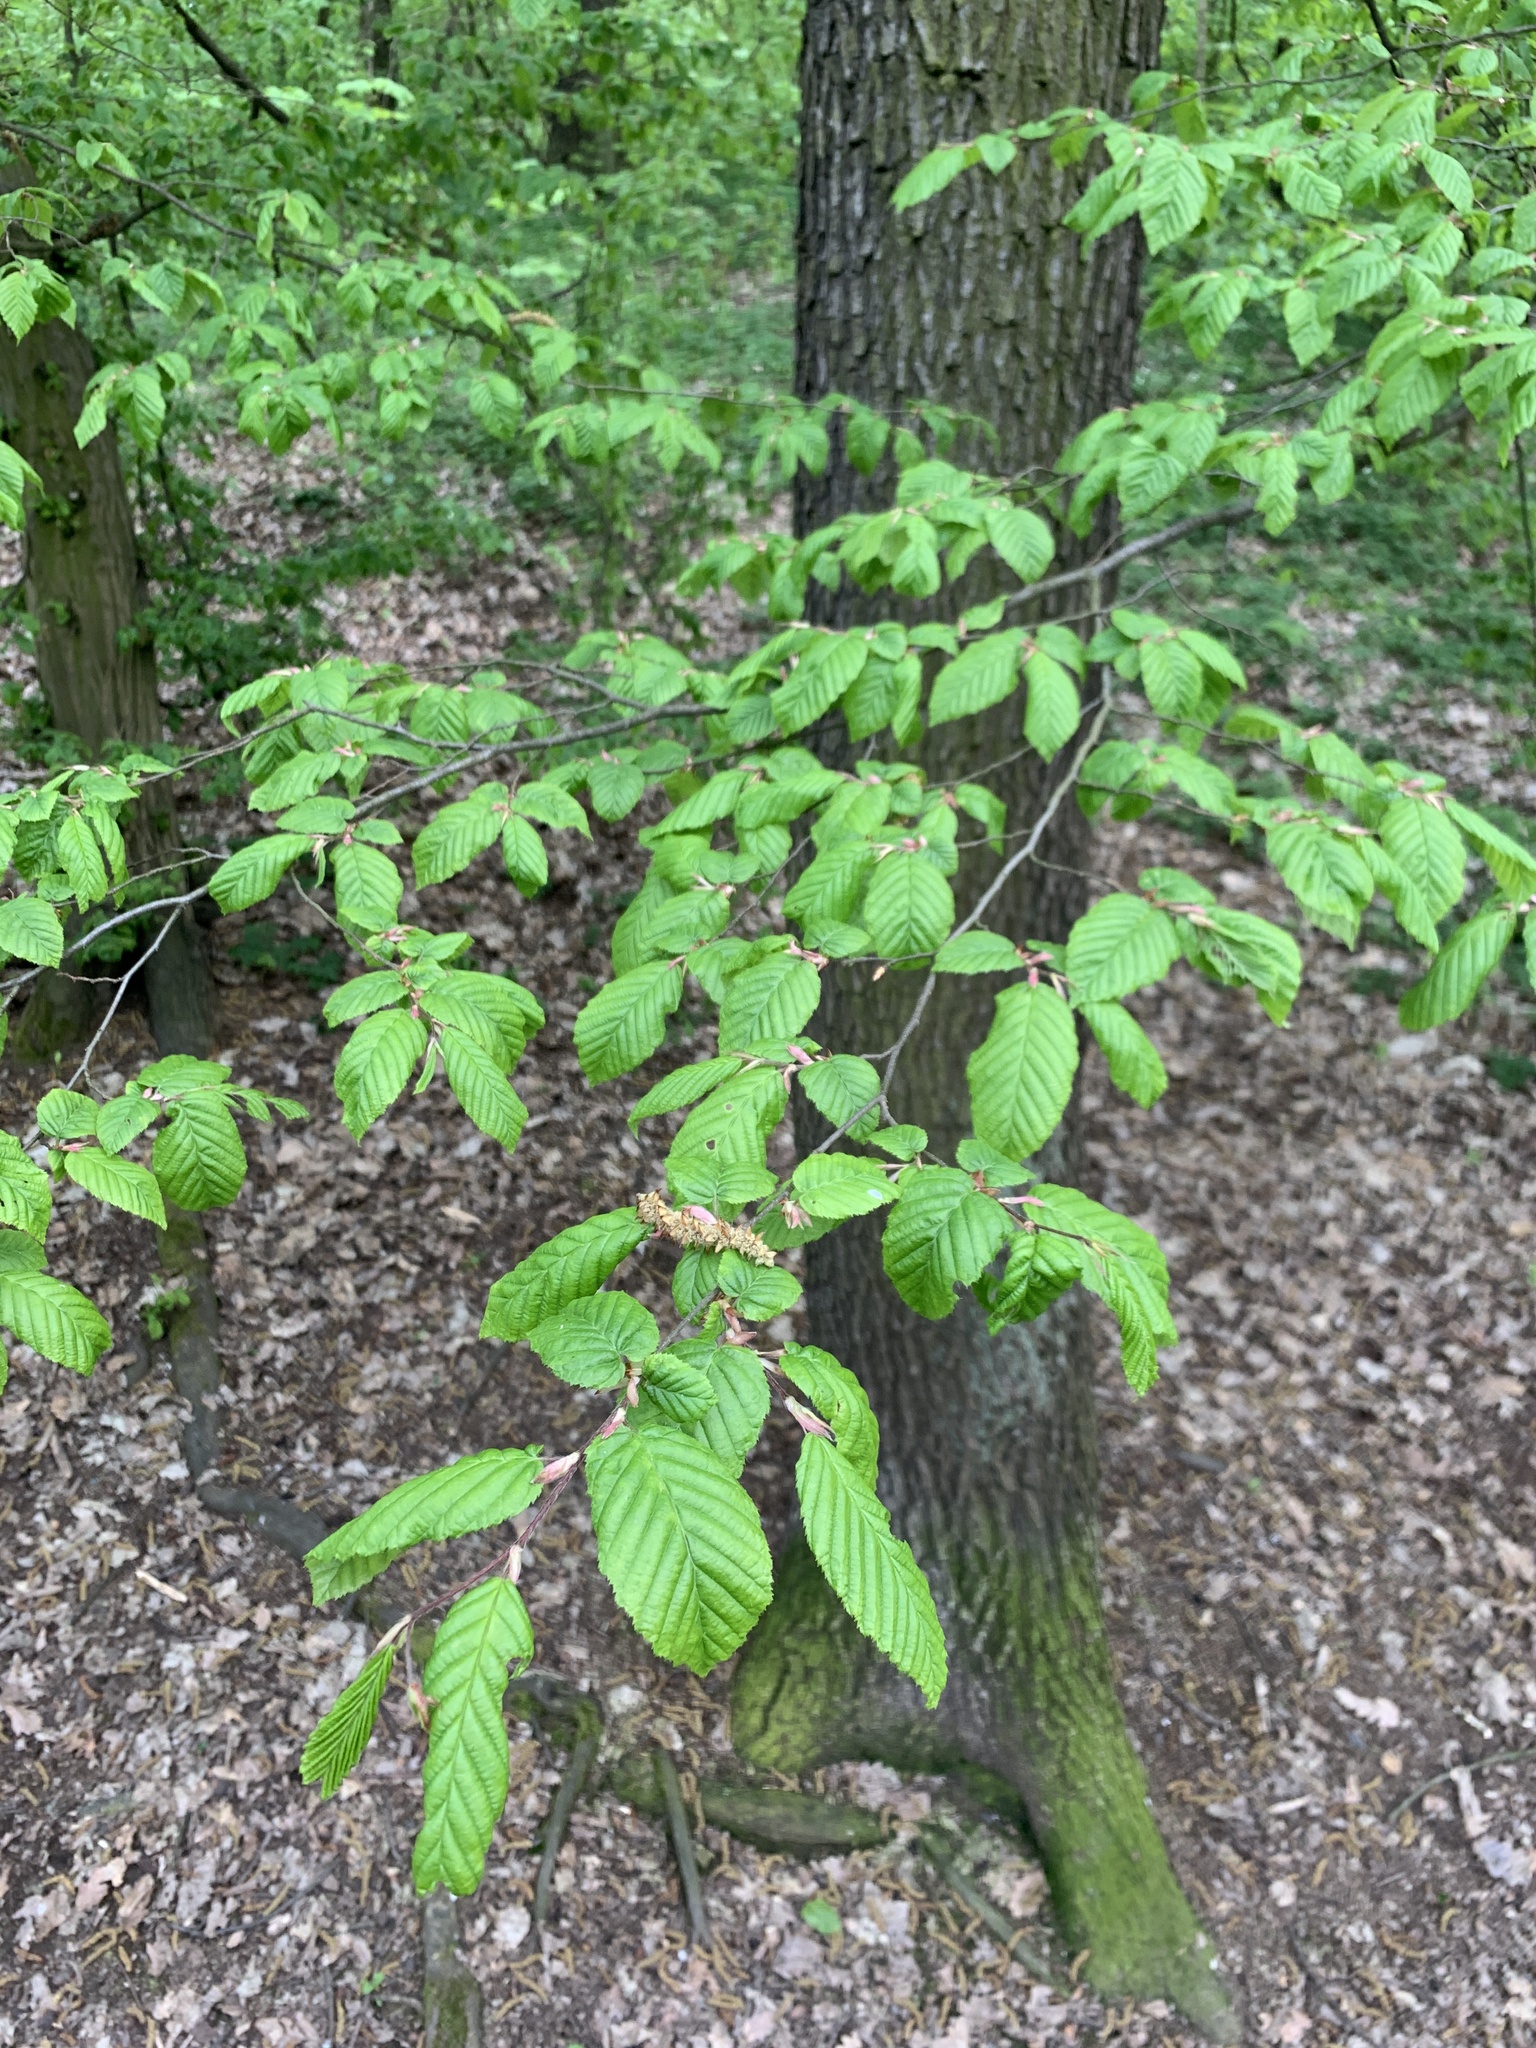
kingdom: Plantae
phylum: Tracheophyta
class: Magnoliopsida
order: Fagales
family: Betulaceae
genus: Carpinus
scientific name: Carpinus betulus
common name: Hornbeam
